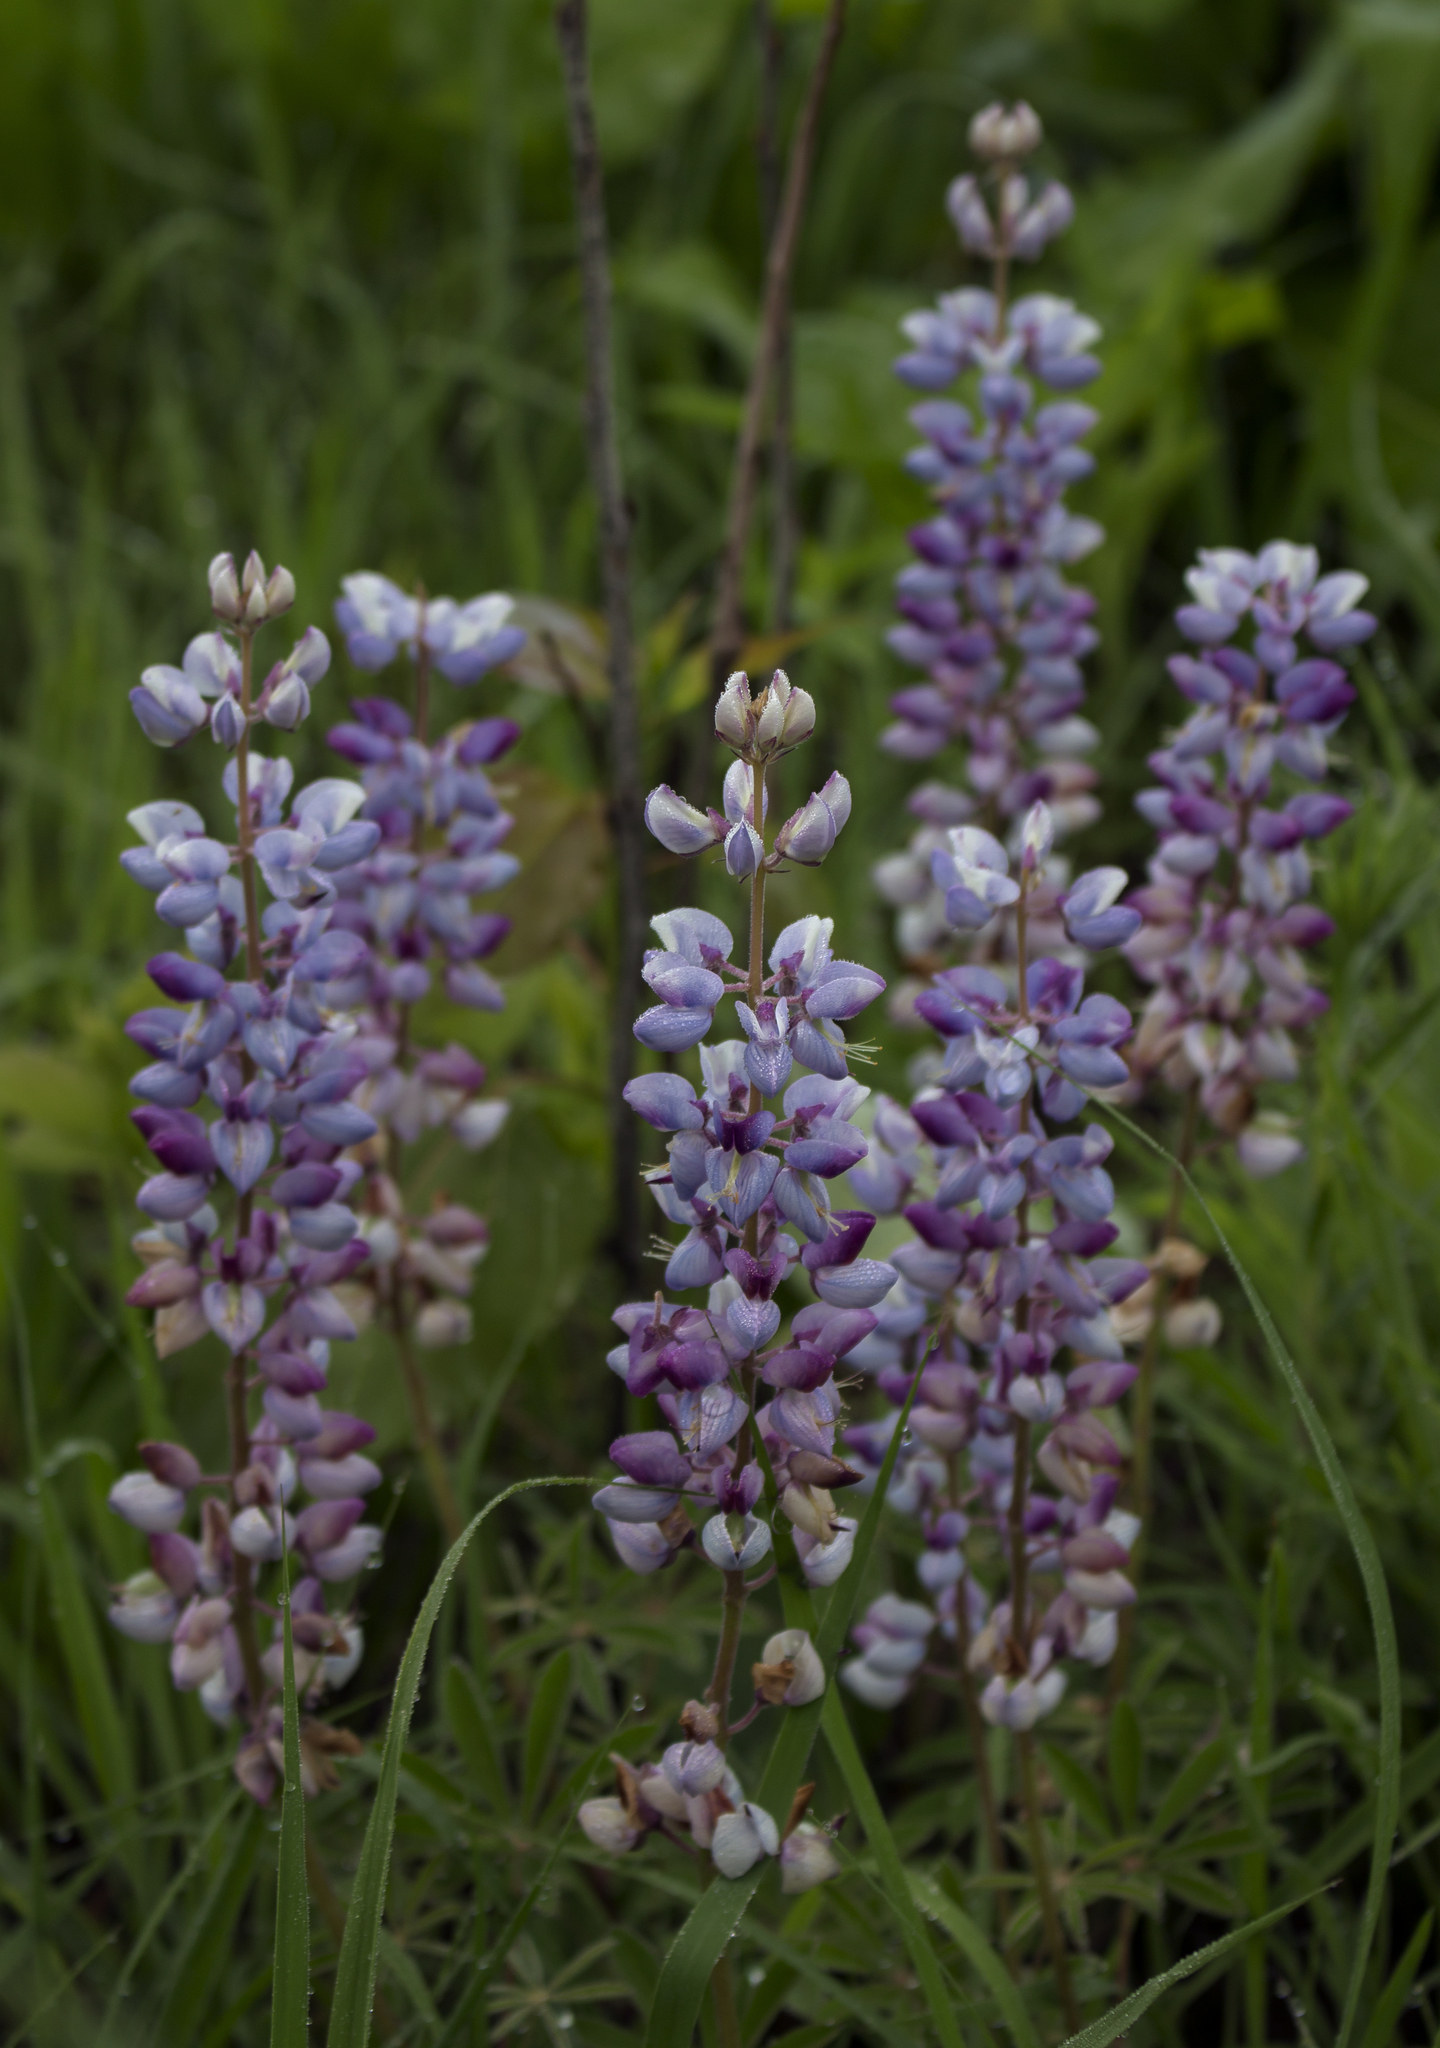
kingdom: Plantae
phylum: Tracheophyta
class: Magnoliopsida
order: Fabales
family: Fabaceae
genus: Lupinus
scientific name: Lupinus perennis
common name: Sundial lupine
